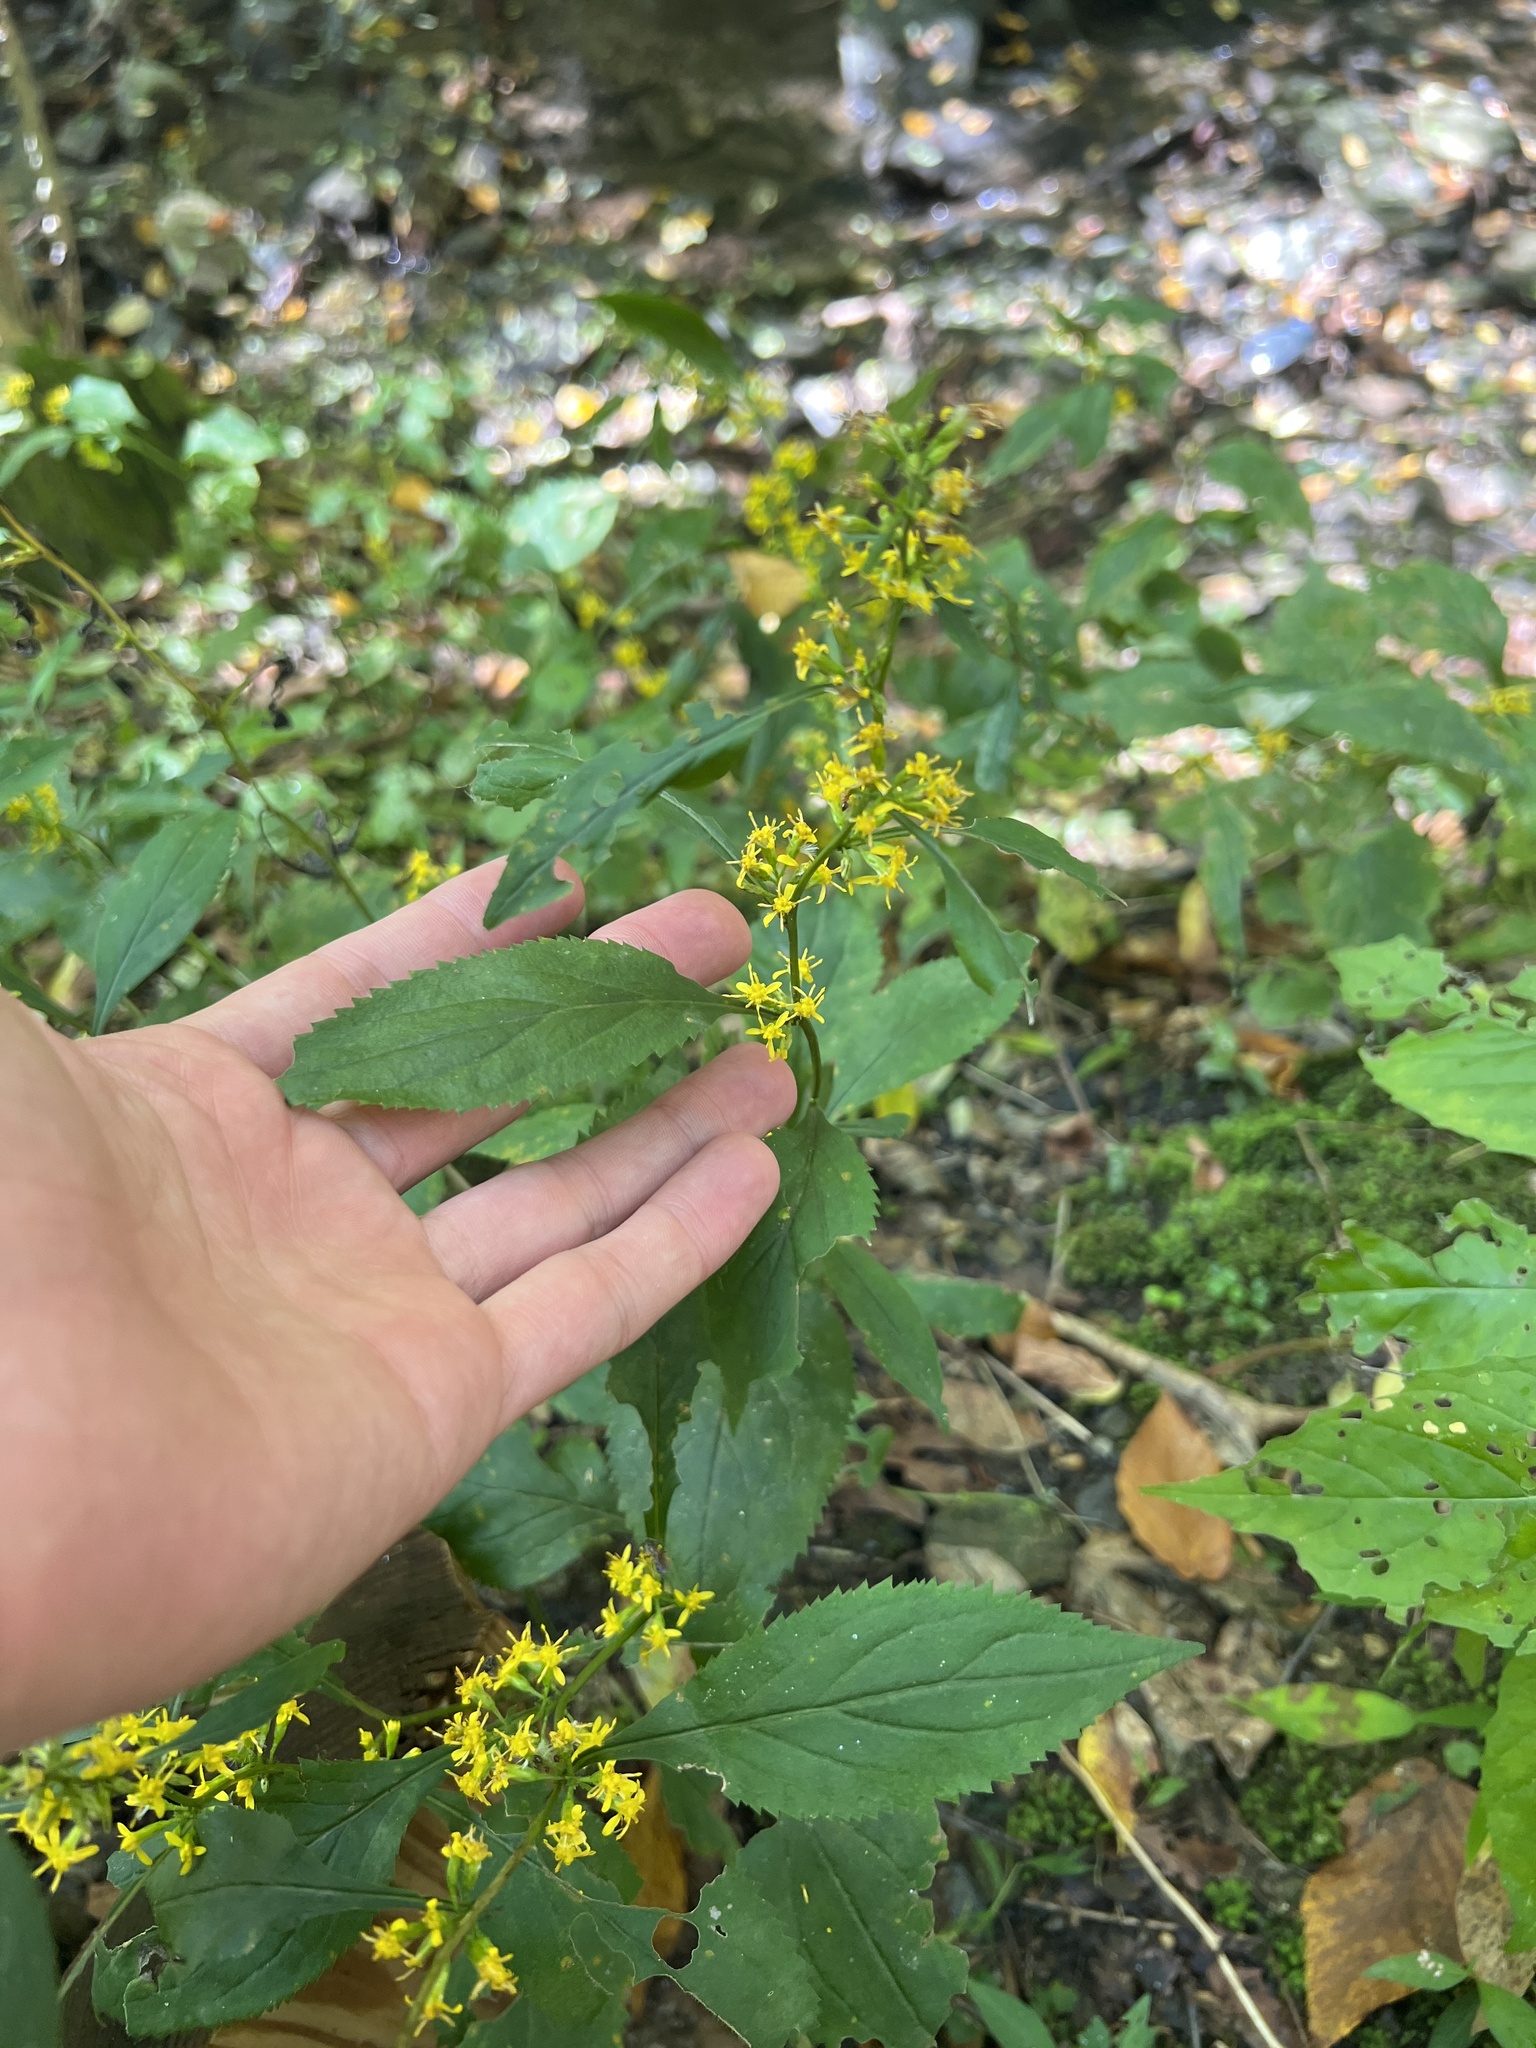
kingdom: Plantae
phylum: Tracheophyta
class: Magnoliopsida
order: Asterales
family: Asteraceae
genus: Solidago
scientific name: Solidago flexicaulis
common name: Zig-zag goldenrod
